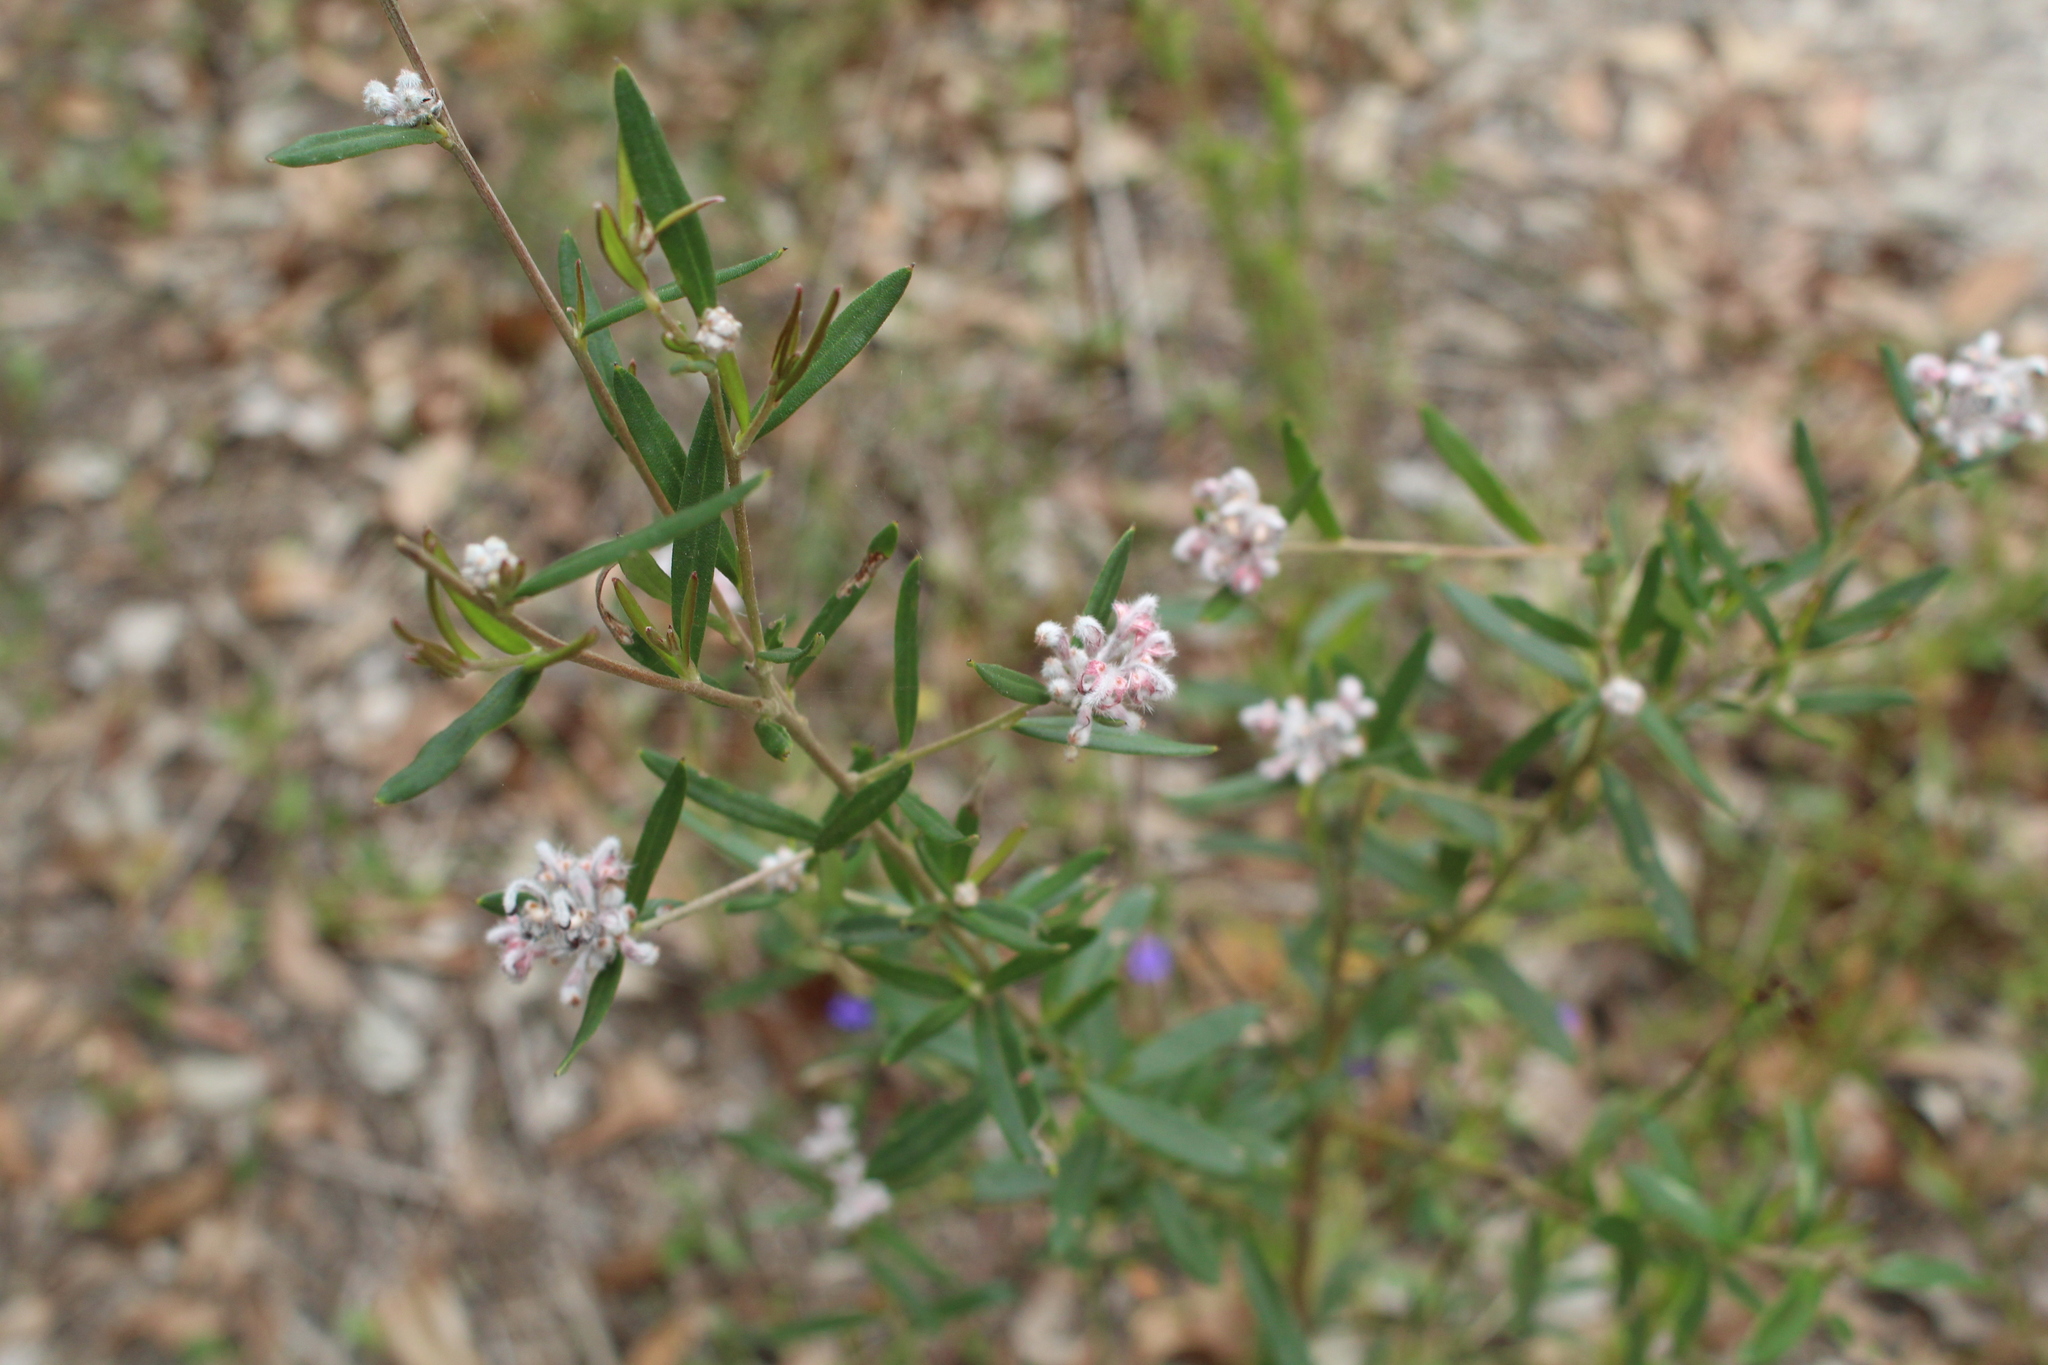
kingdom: Plantae
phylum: Tracheophyta
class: Magnoliopsida
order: Proteales
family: Proteaceae
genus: Grevillea
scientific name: Grevillea occidentalis
